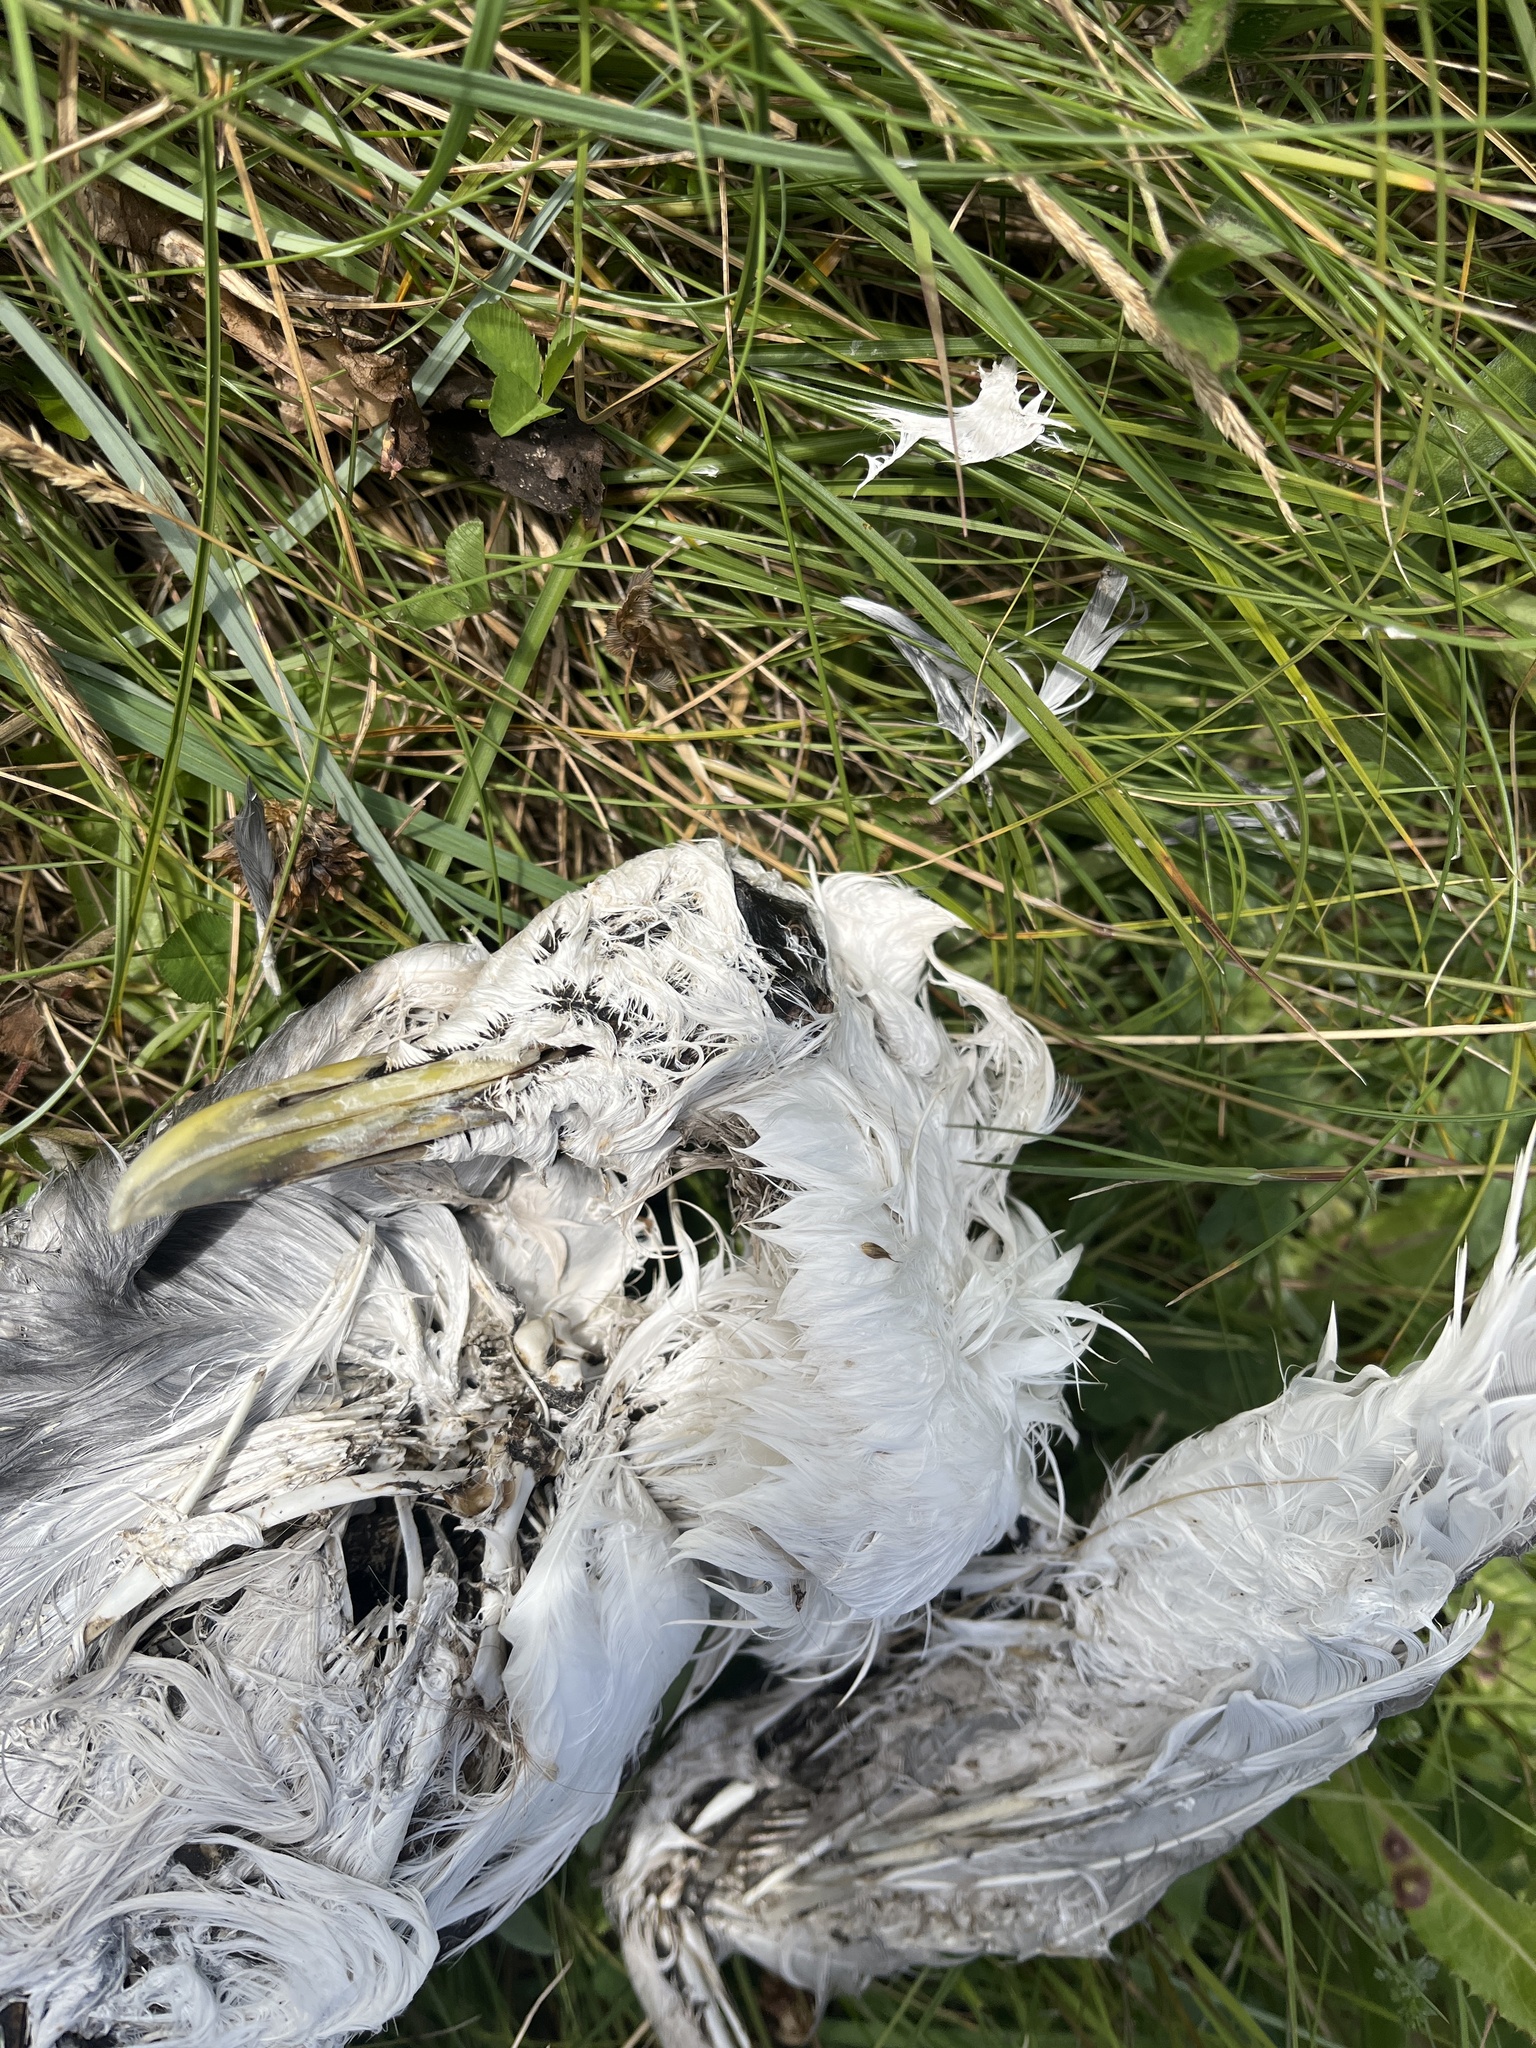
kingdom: Animalia
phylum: Chordata
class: Aves
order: Charadriiformes
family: Laridae
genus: Rissa
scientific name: Rissa tridactyla
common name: Black-legged kittiwake
